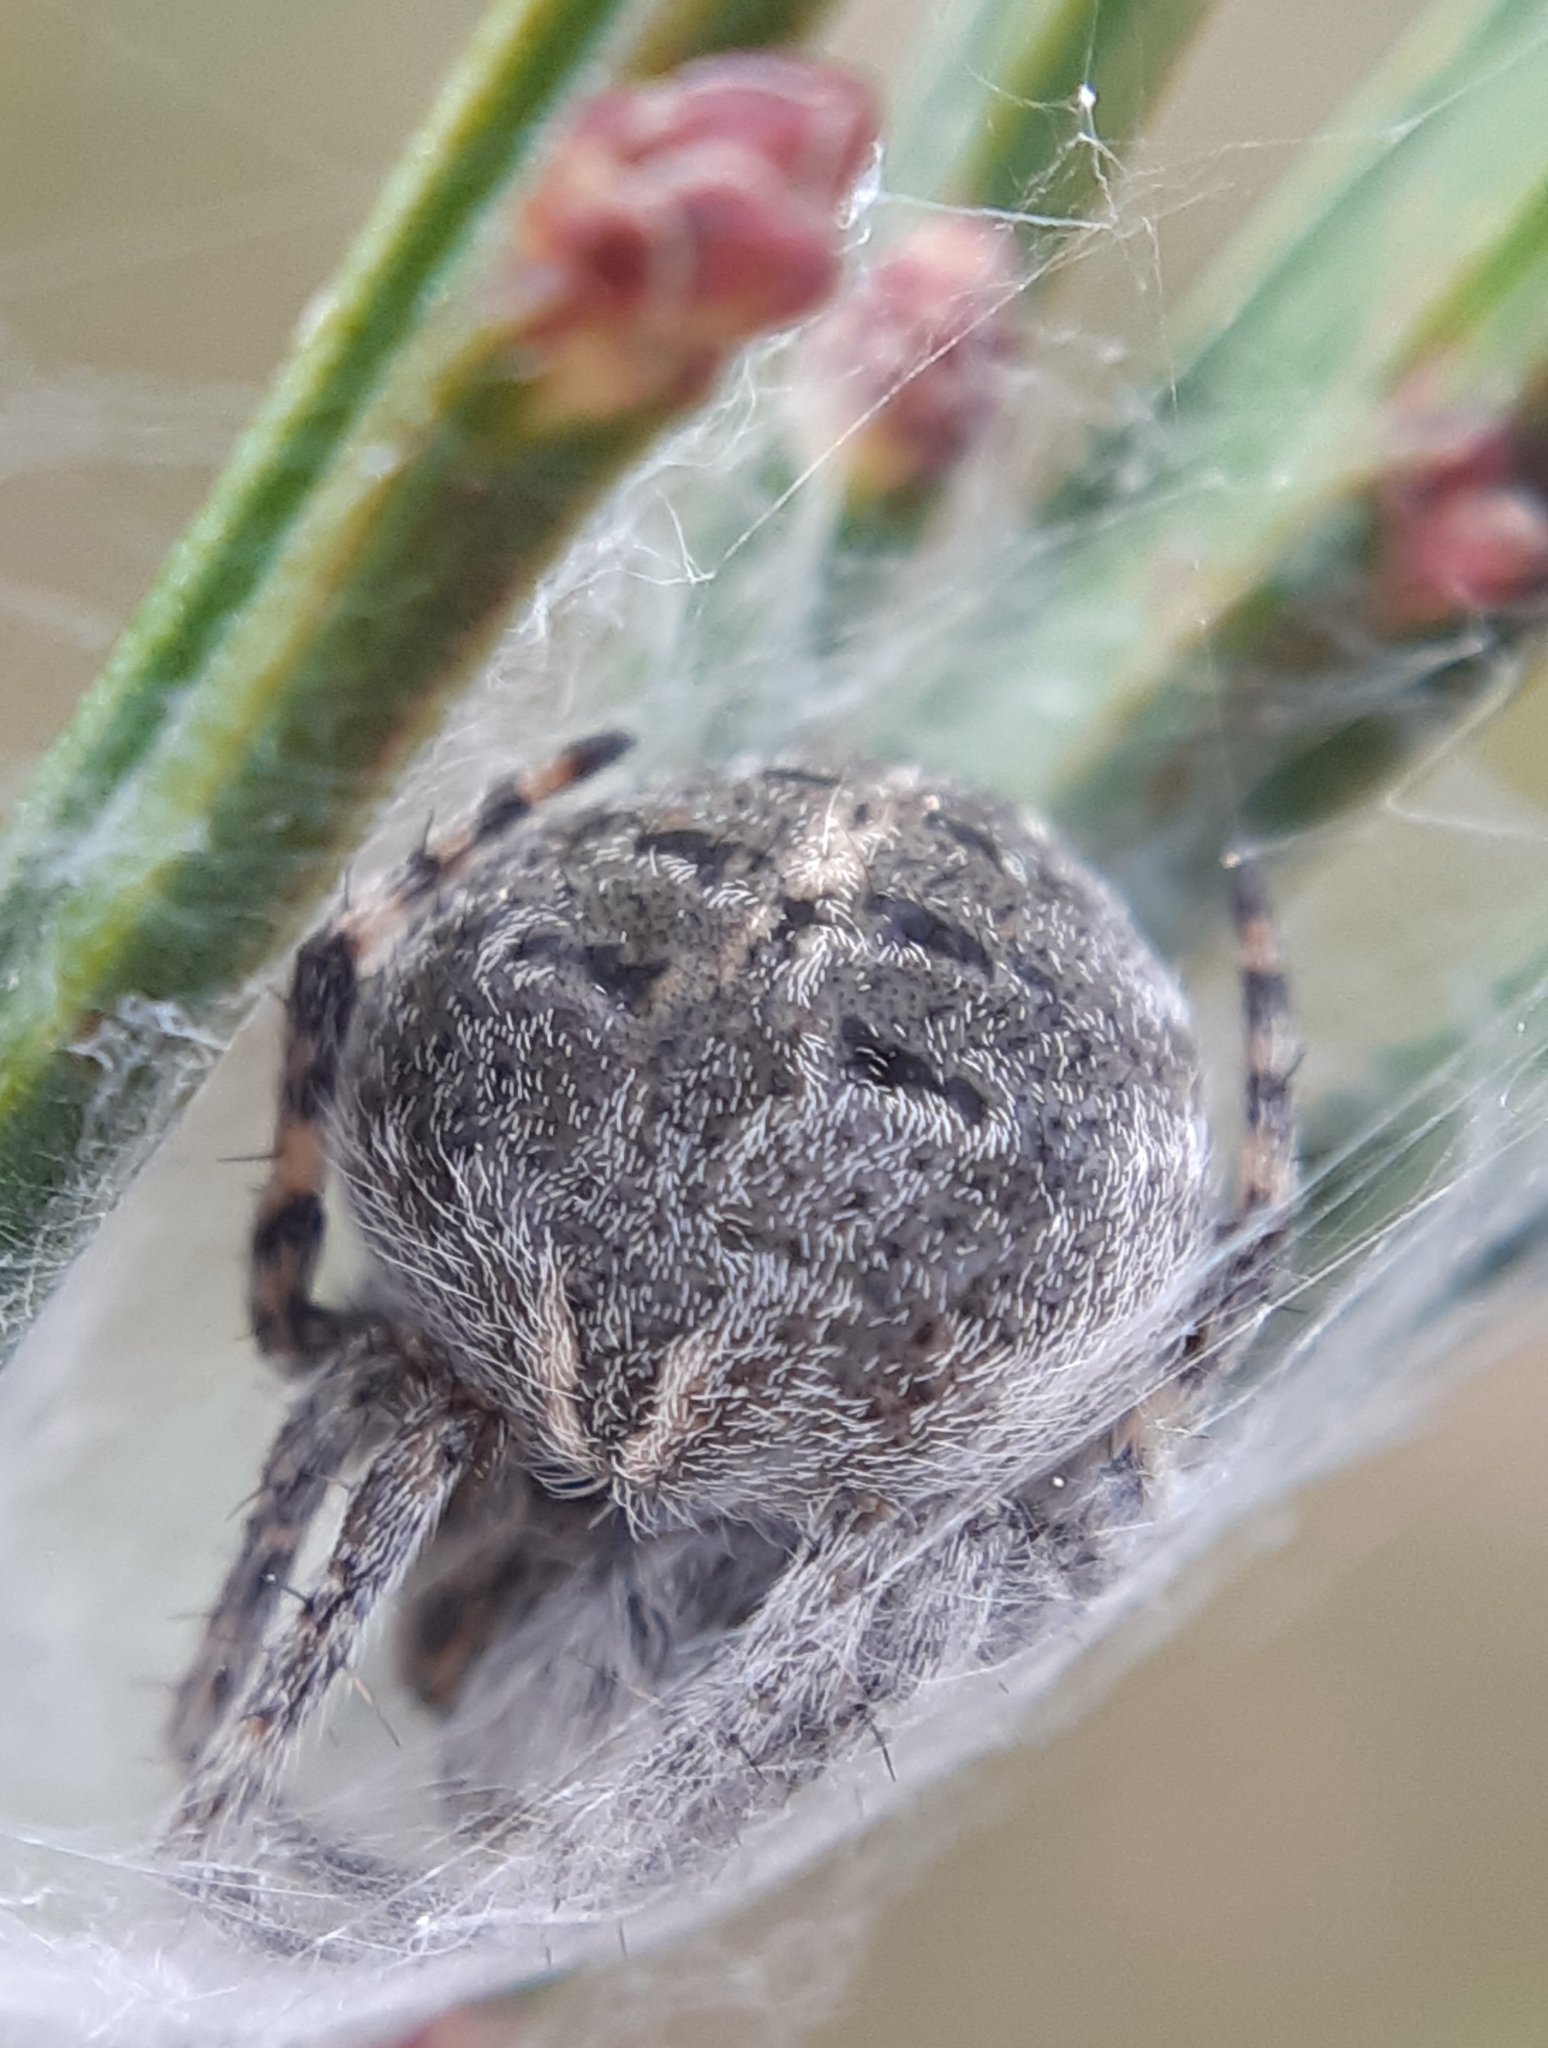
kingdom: Animalia
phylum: Arthropoda
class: Arachnida
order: Araneae
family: Araneidae
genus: Agalenatea
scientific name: Agalenatea redii
